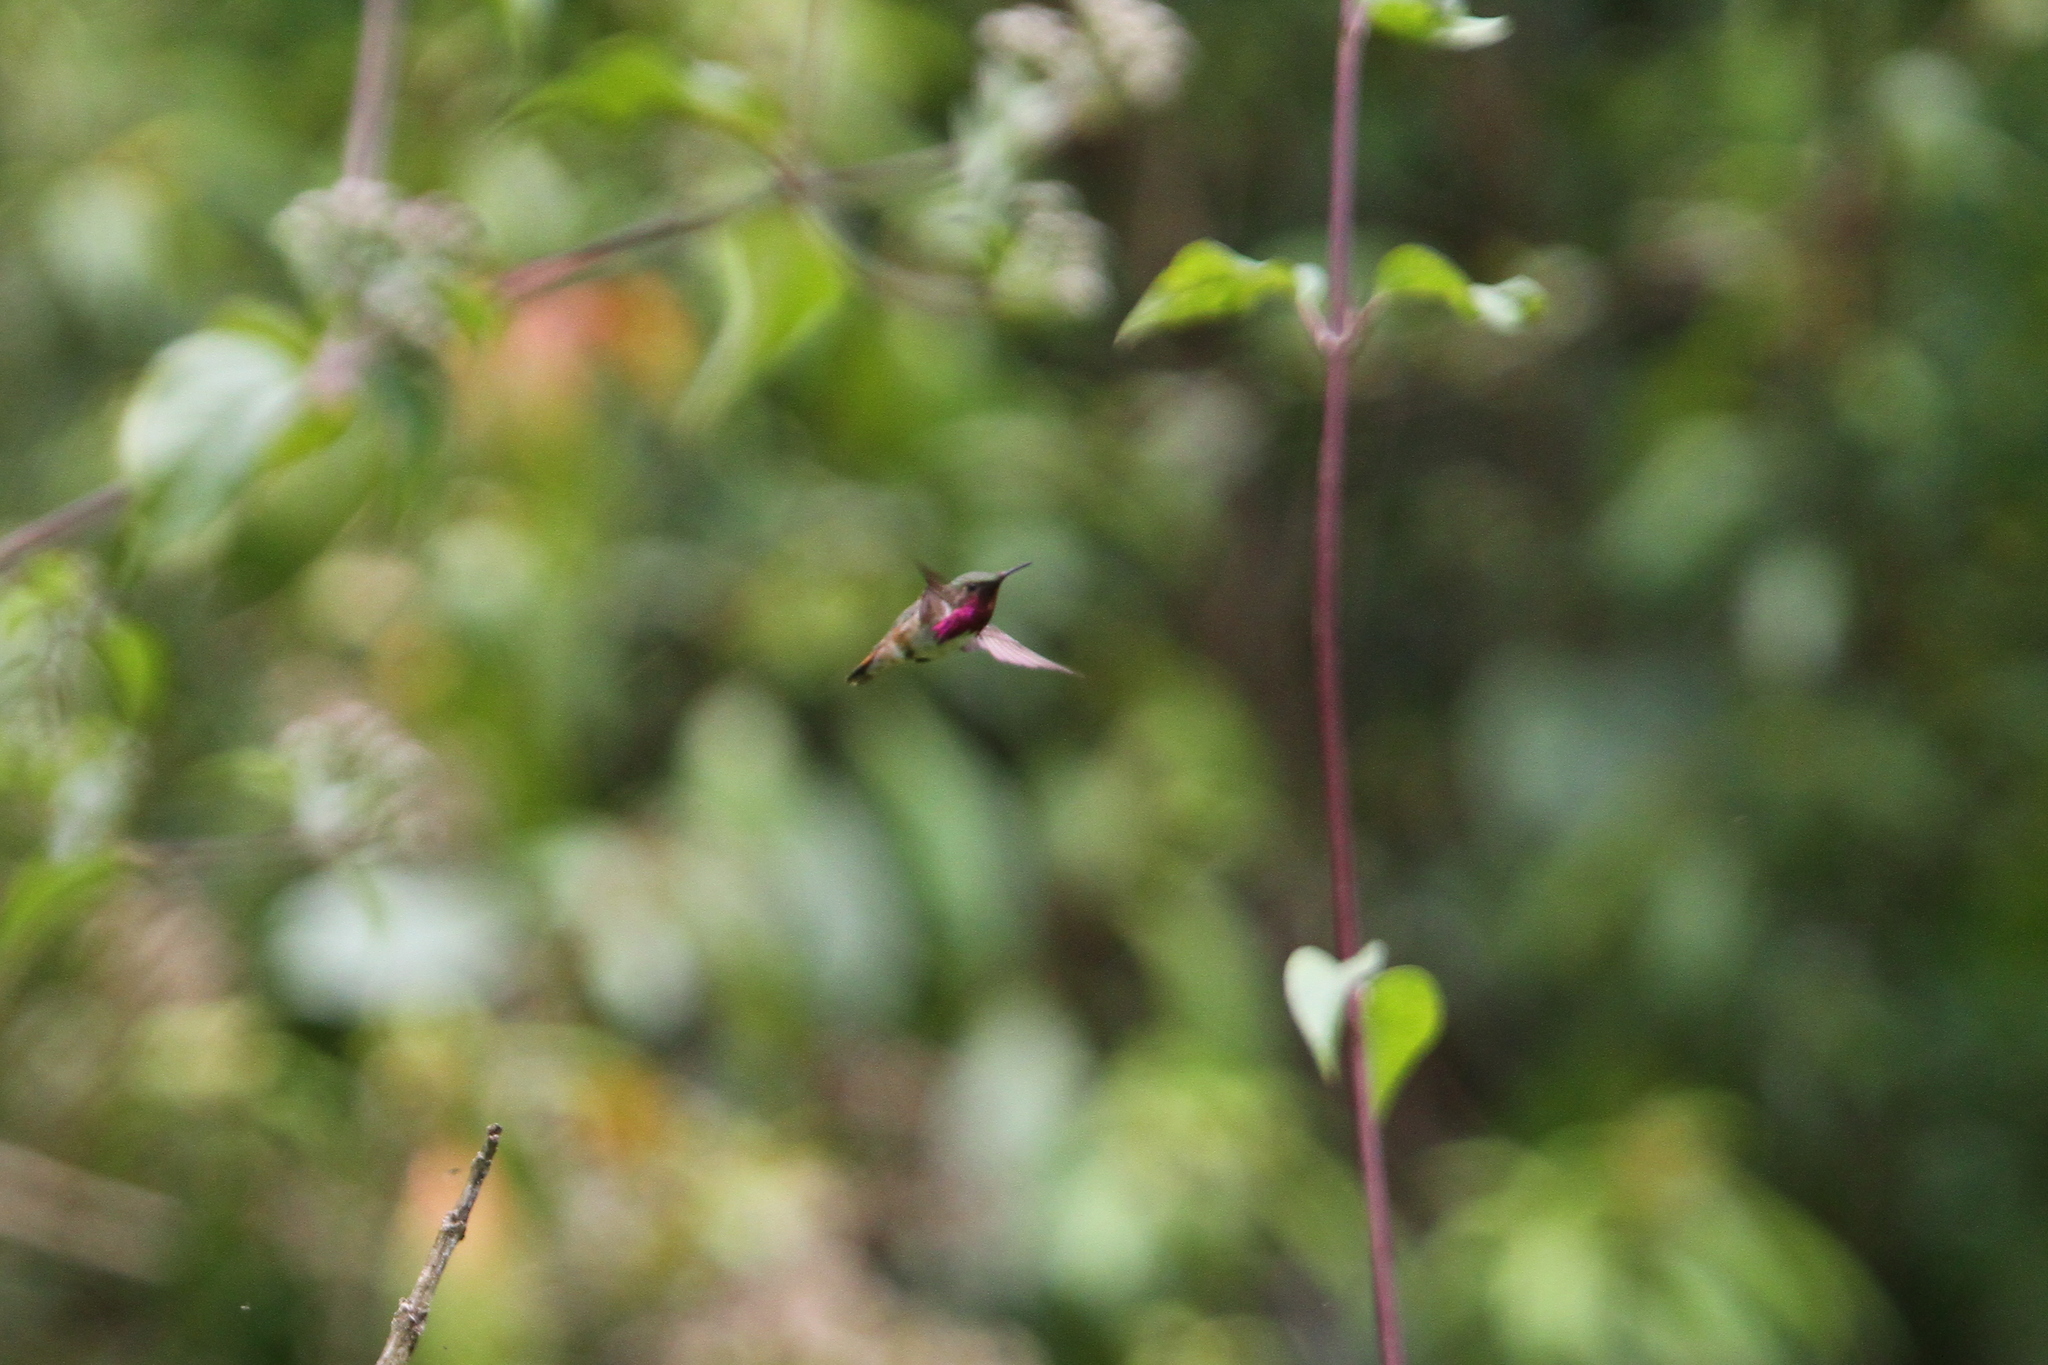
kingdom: Animalia
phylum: Chordata
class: Aves
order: Apodiformes
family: Trochilidae
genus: Selasphorus
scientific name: Selasphorus ellioti
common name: Wine-throated hummingbird
